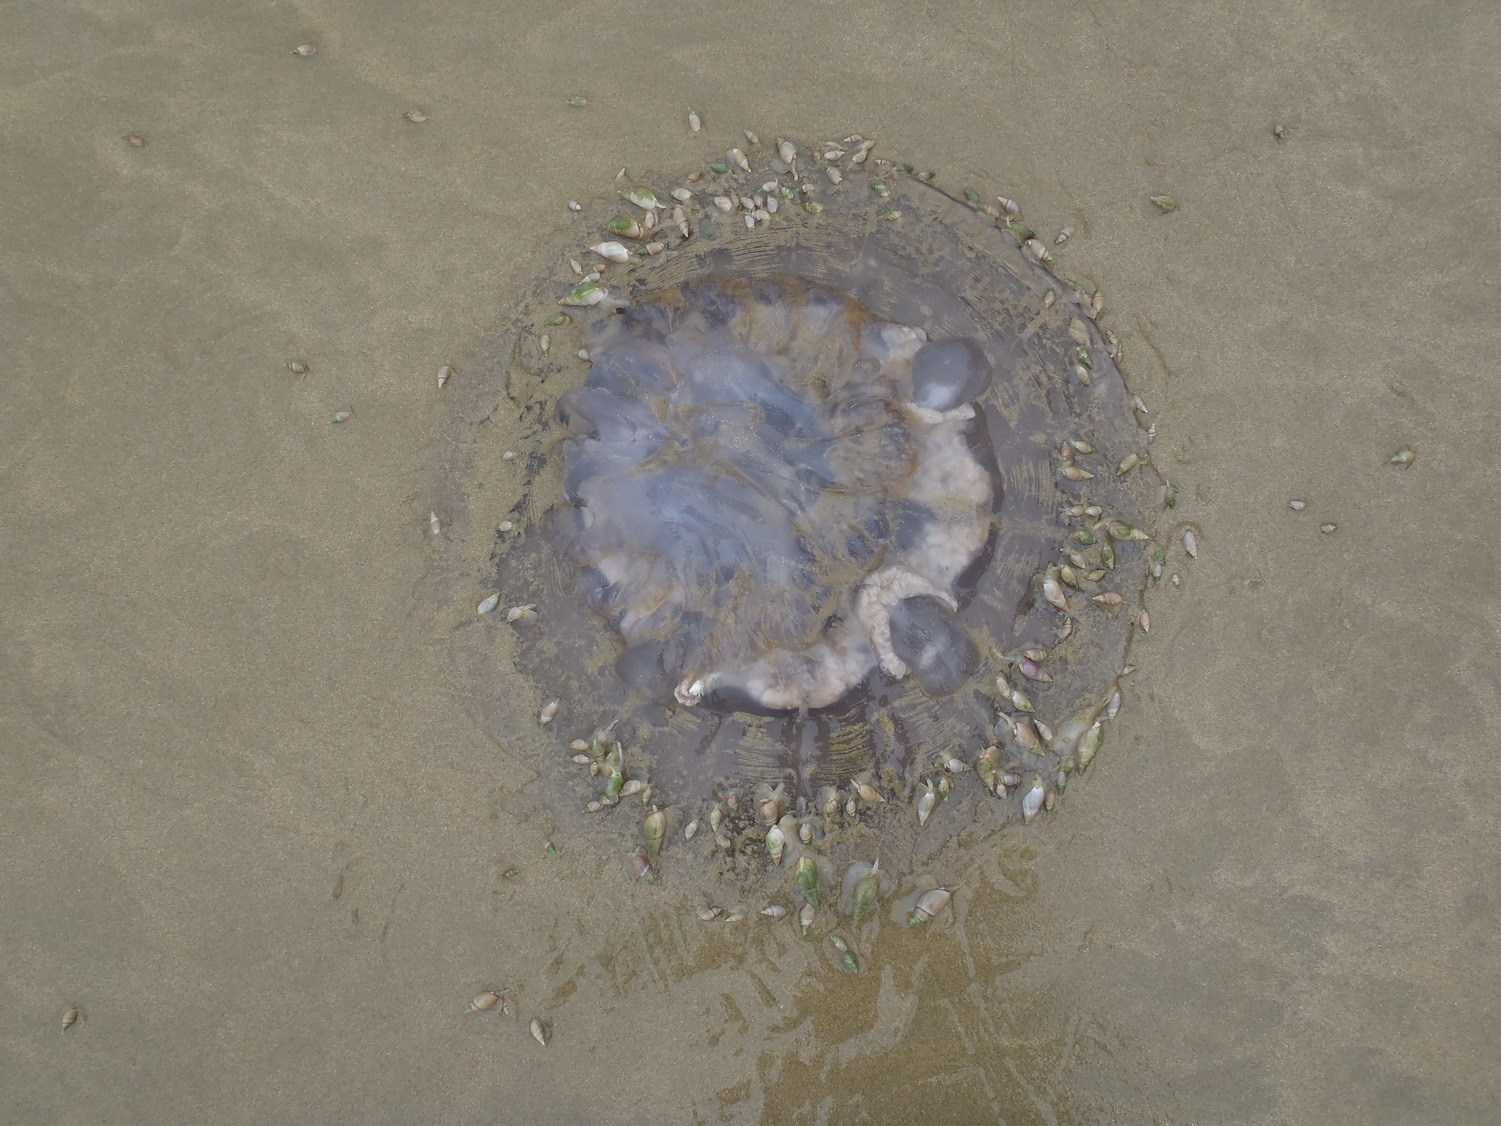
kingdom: Animalia
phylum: Cnidaria
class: Scyphozoa
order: Rhizostomeae
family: Rhizostomatidae
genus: Eupilema
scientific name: Eupilema inexpectata
